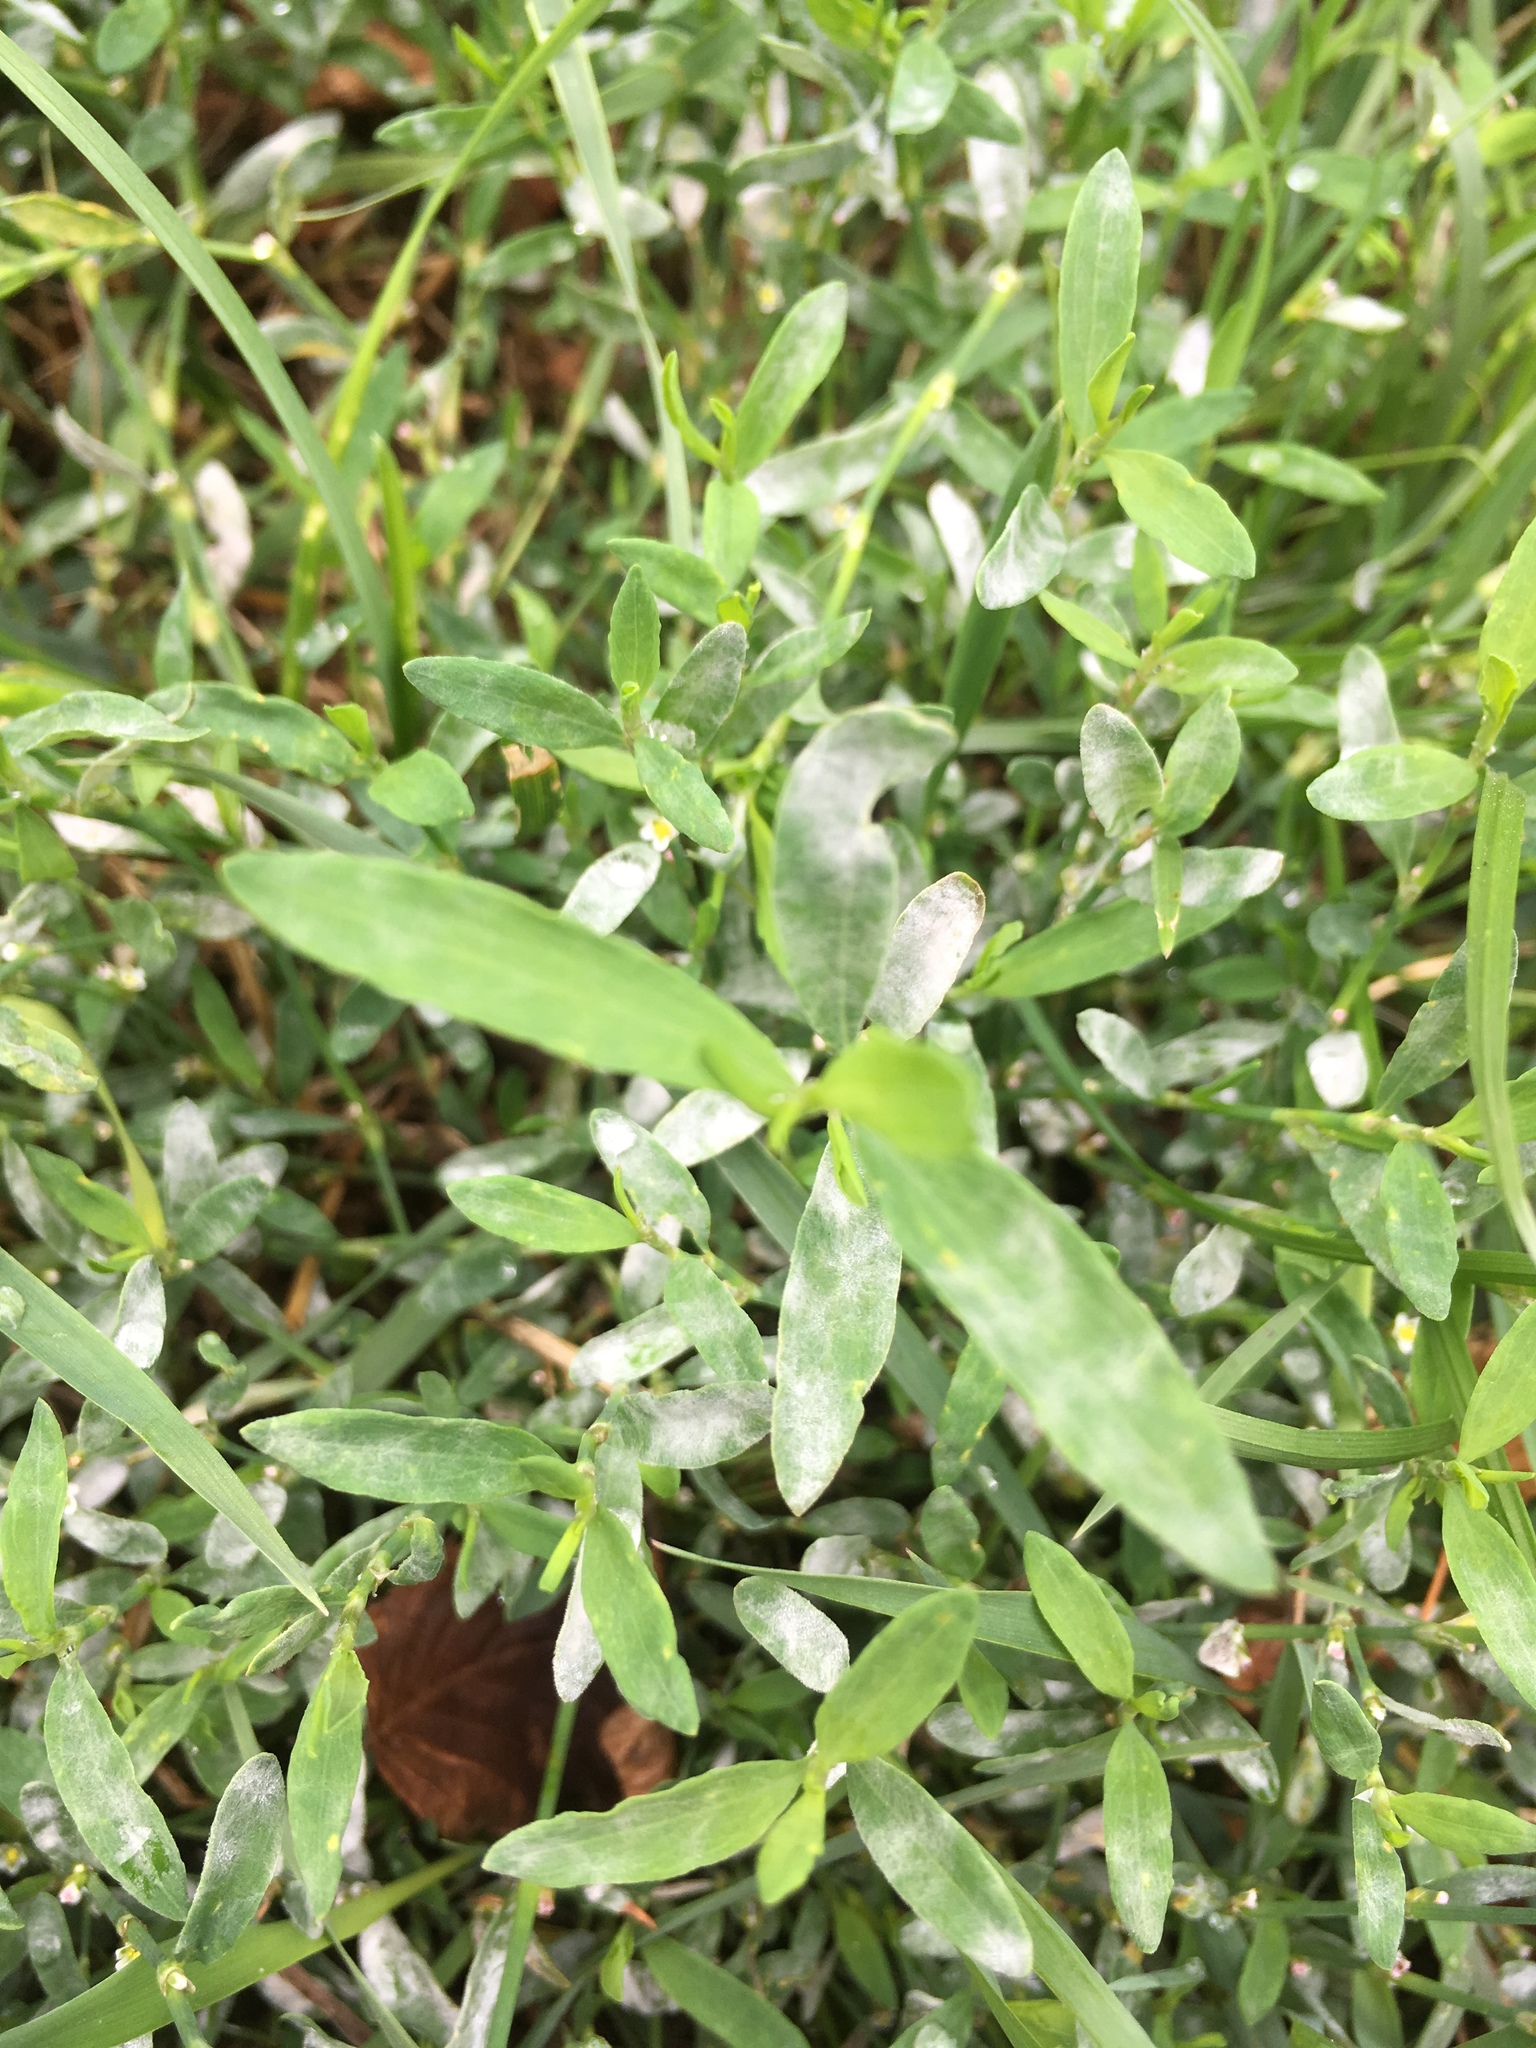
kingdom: Plantae
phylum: Tracheophyta
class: Magnoliopsida
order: Caryophyllales
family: Polygonaceae
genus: Polygonum
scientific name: Polygonum aviculare
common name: Prostrate knotweed
